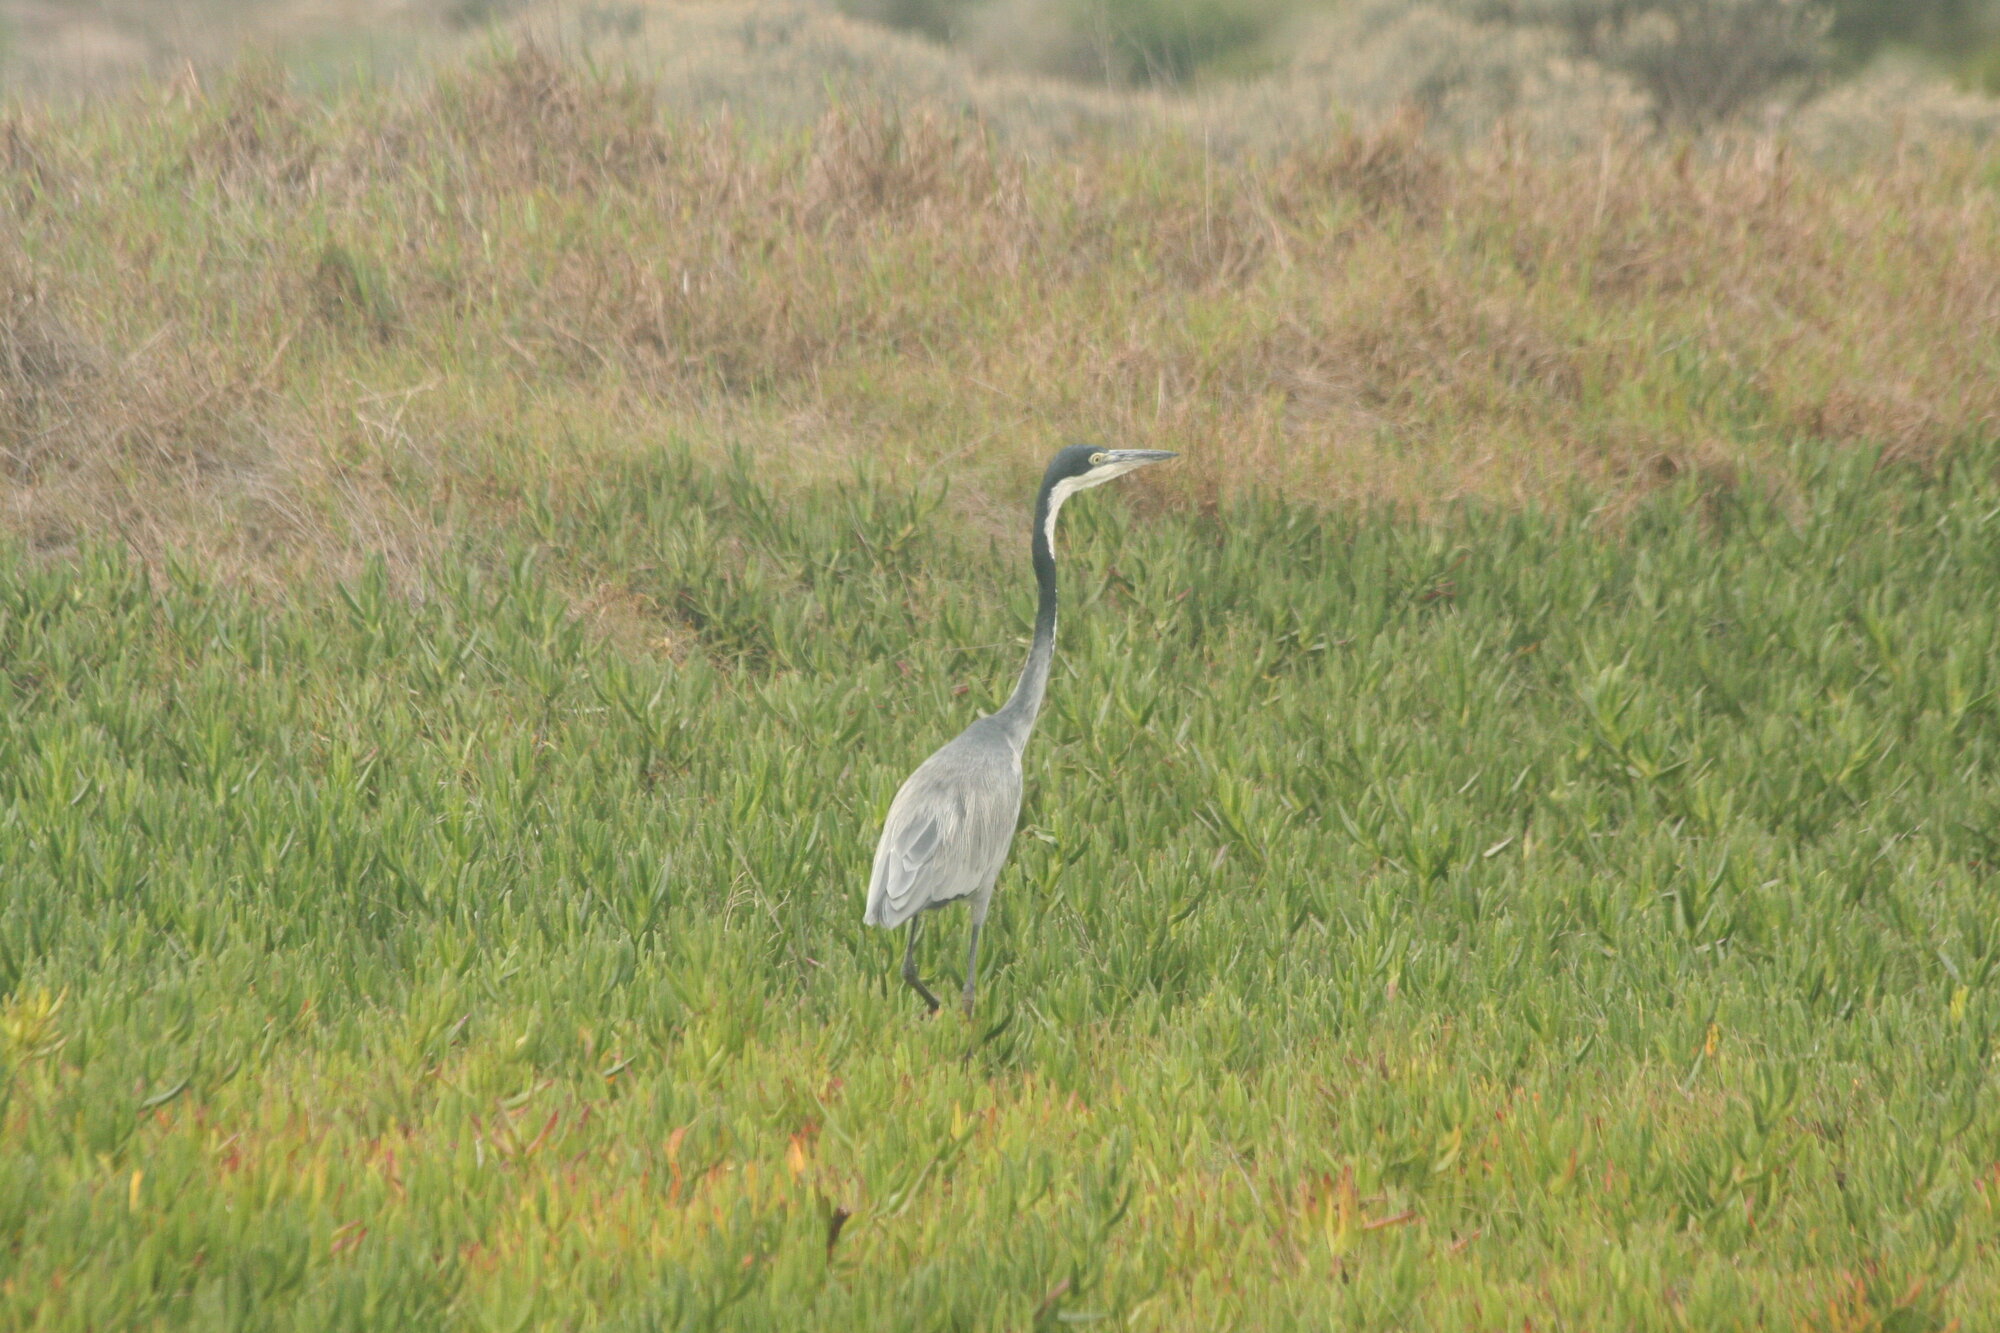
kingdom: Animalia
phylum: Chordata
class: Aves
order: Pelecaniformes
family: Ardeidae
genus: Ardea
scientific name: Ardea melanocephala
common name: Black-headed heron
